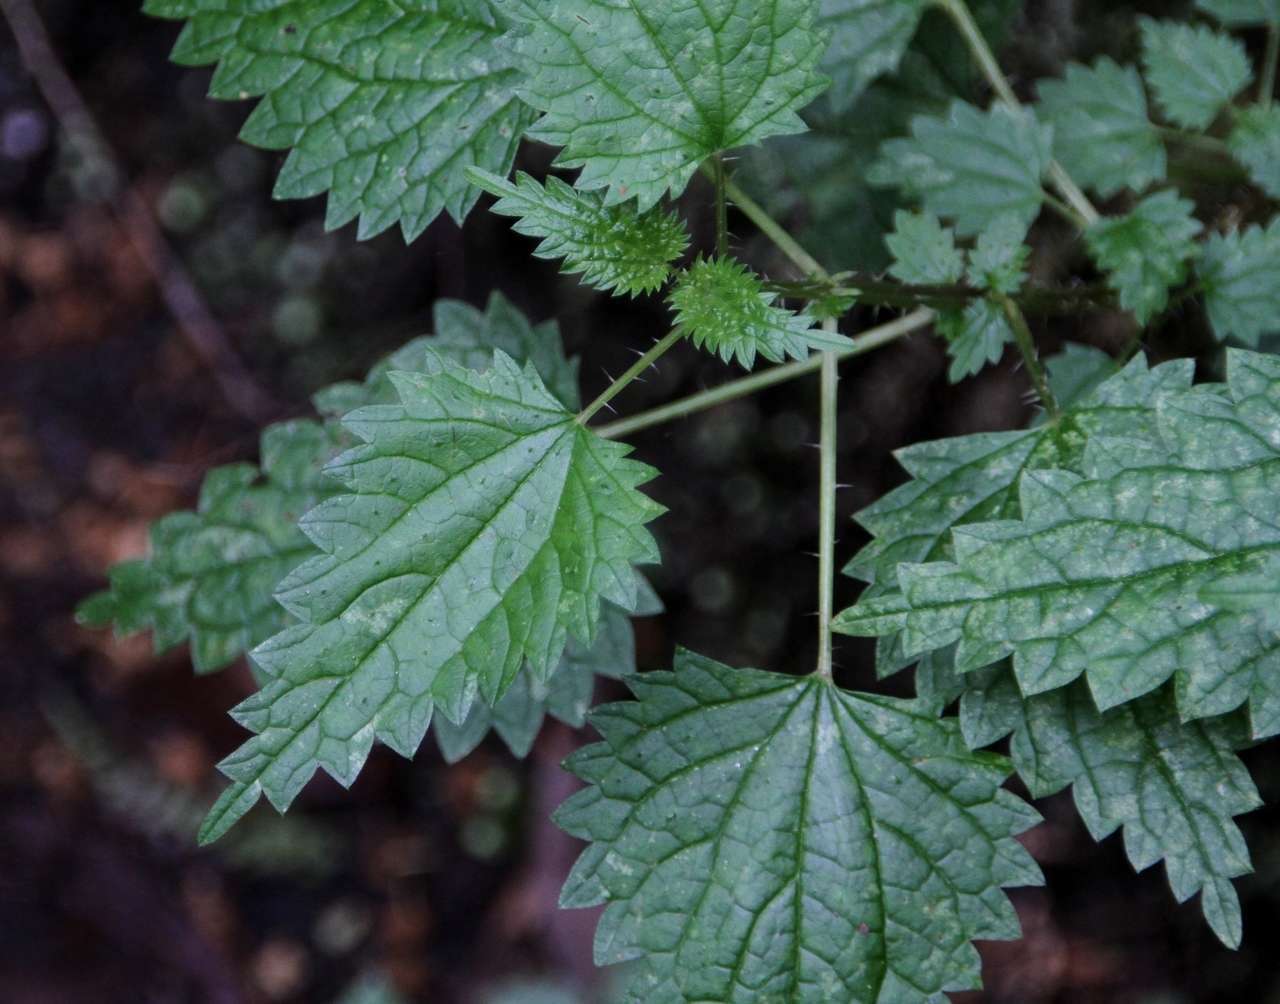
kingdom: Plantae
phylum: Tracheophyta
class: Magnoliopsida
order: Rosales
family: Urticaceae
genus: Urtica
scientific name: Urtica incisa
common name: Scrub nettle
